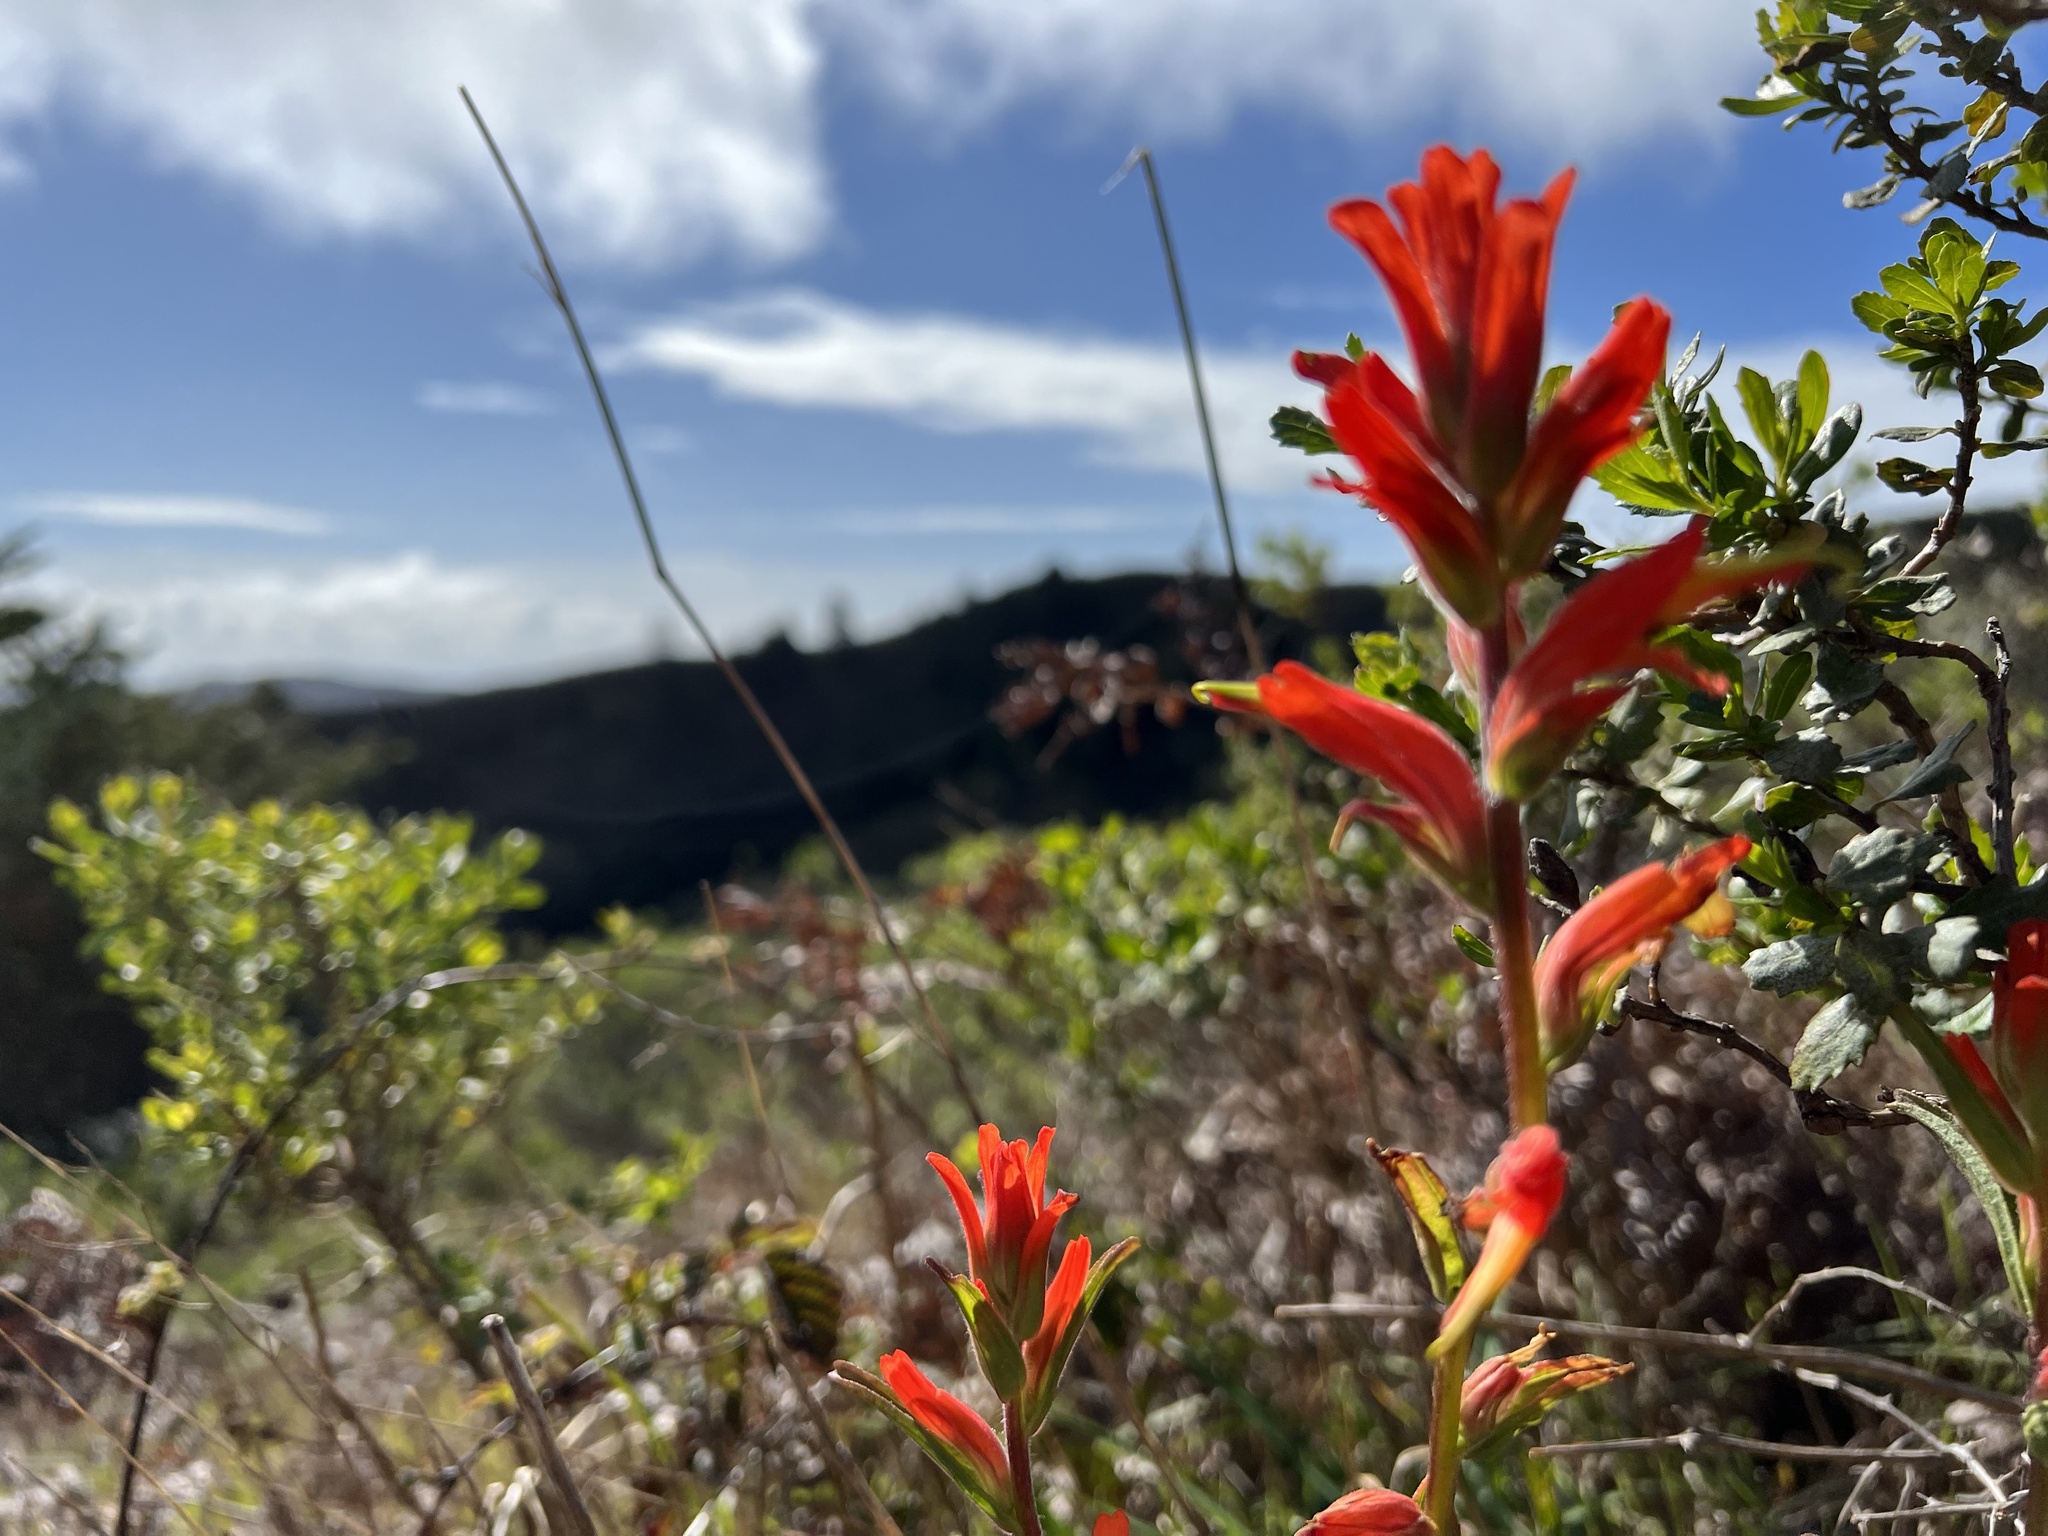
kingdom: Plantae
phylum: Tracheophyta
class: Magnoliopsida
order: Lamiales
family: Orobanchaceae
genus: Castilleja
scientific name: Castilleja subinclusa
